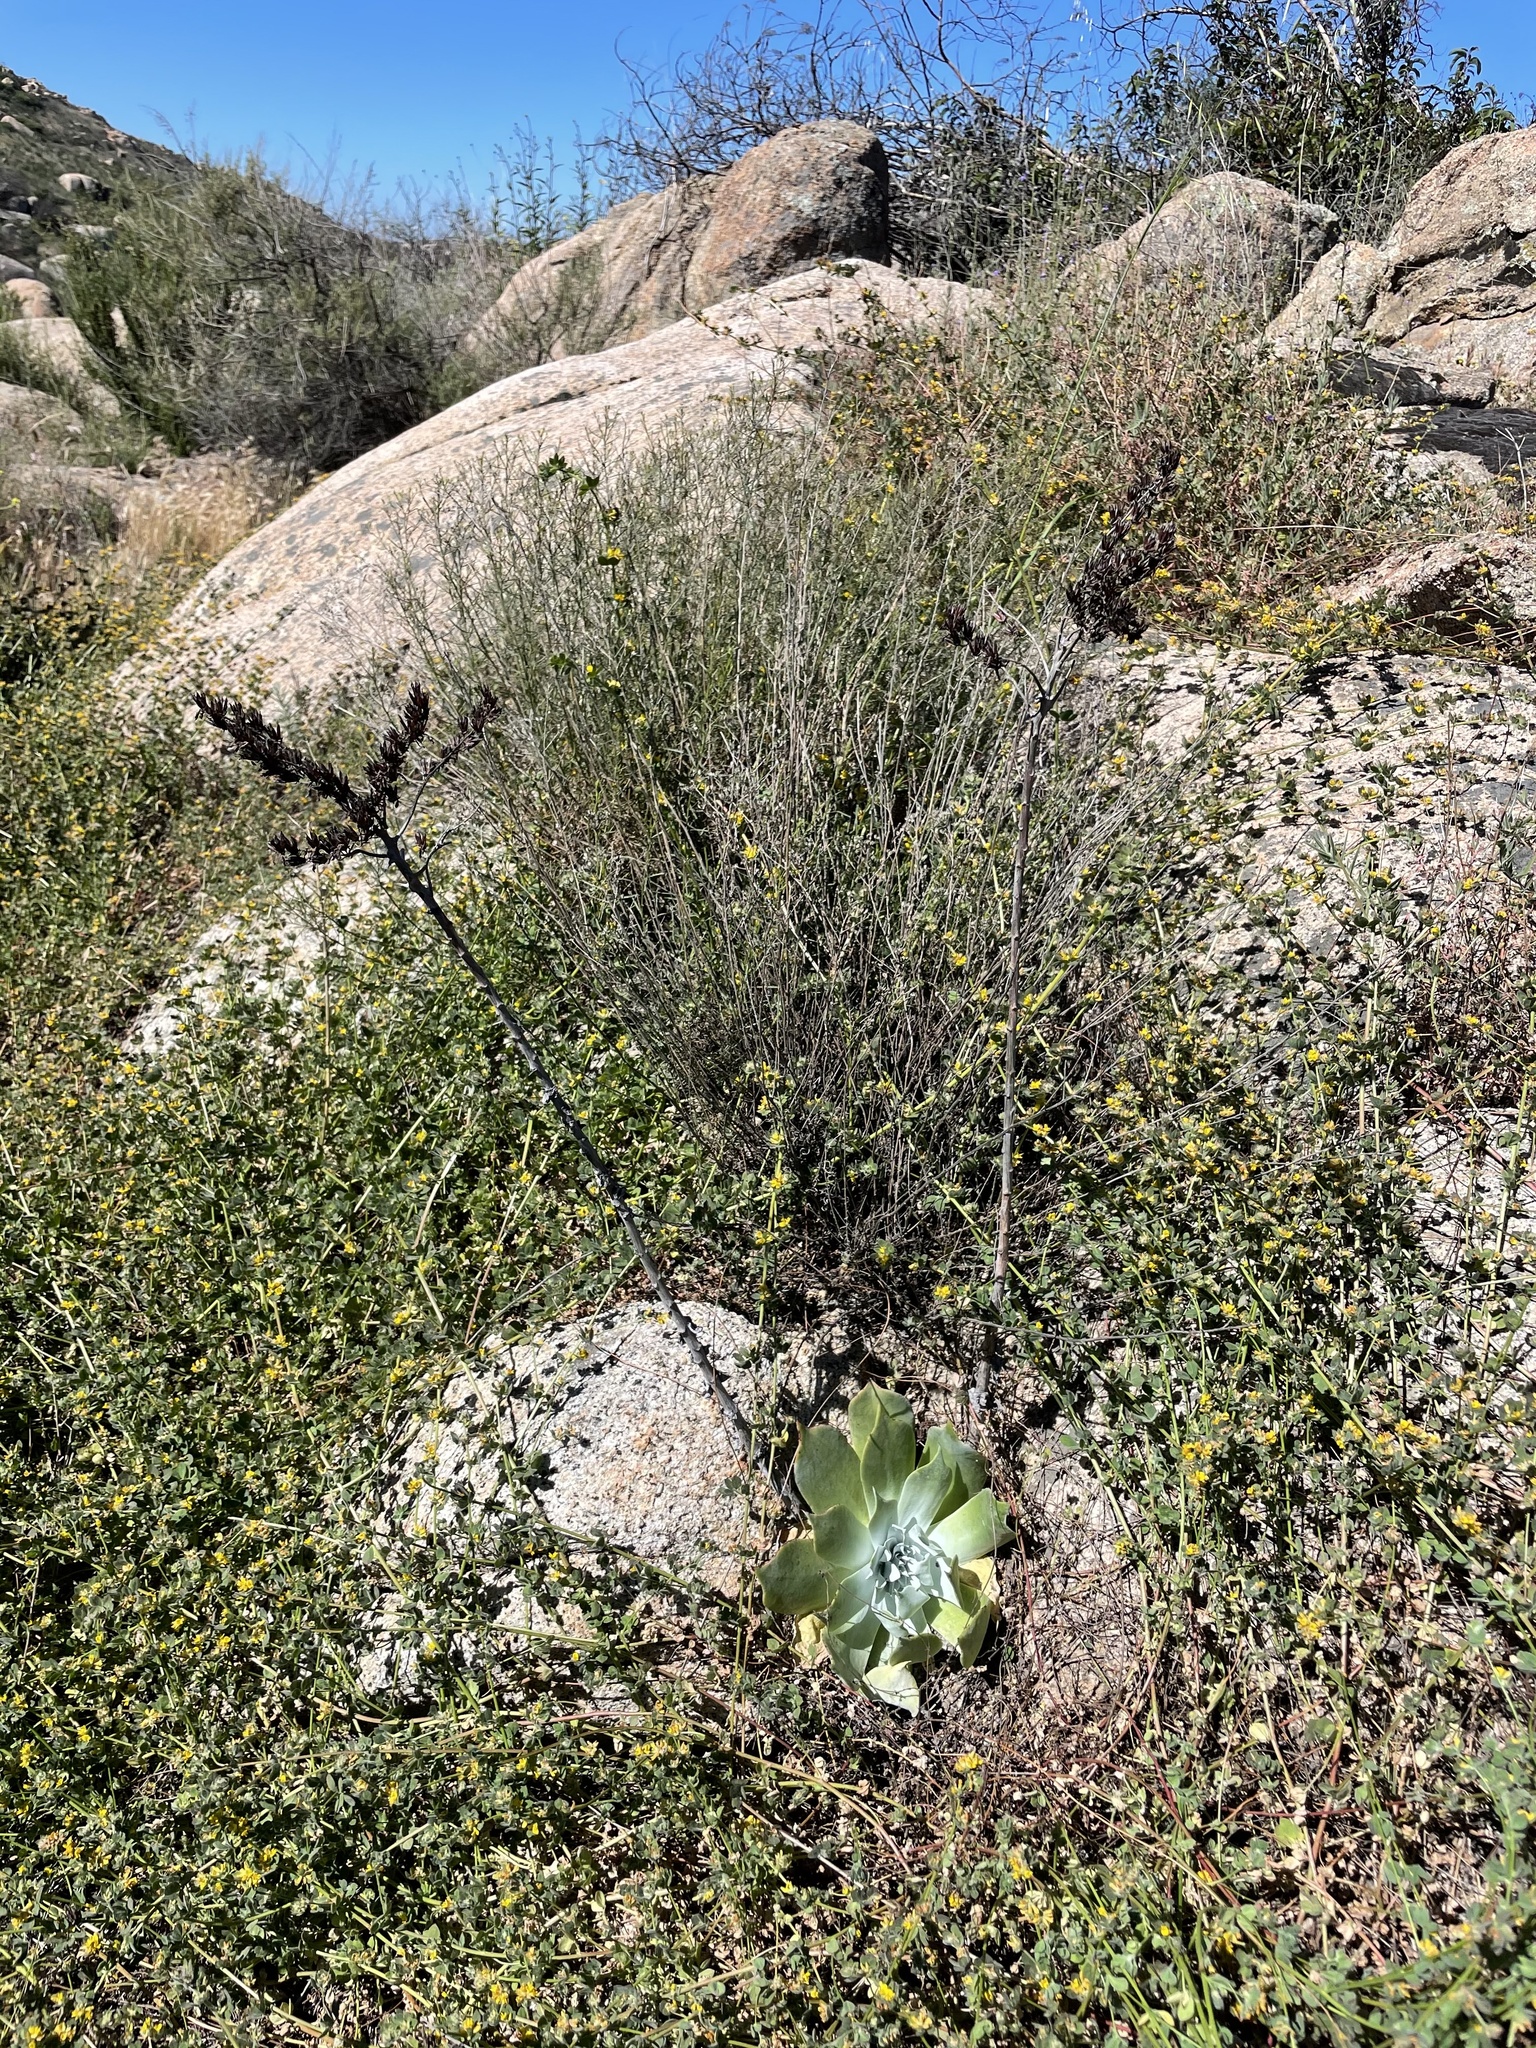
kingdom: Plantae
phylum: Tracheophyta
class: Magnoliopsida
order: Saxifragales
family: Crassulaceae
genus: Dudleya
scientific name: Dudleya pulverulenta
